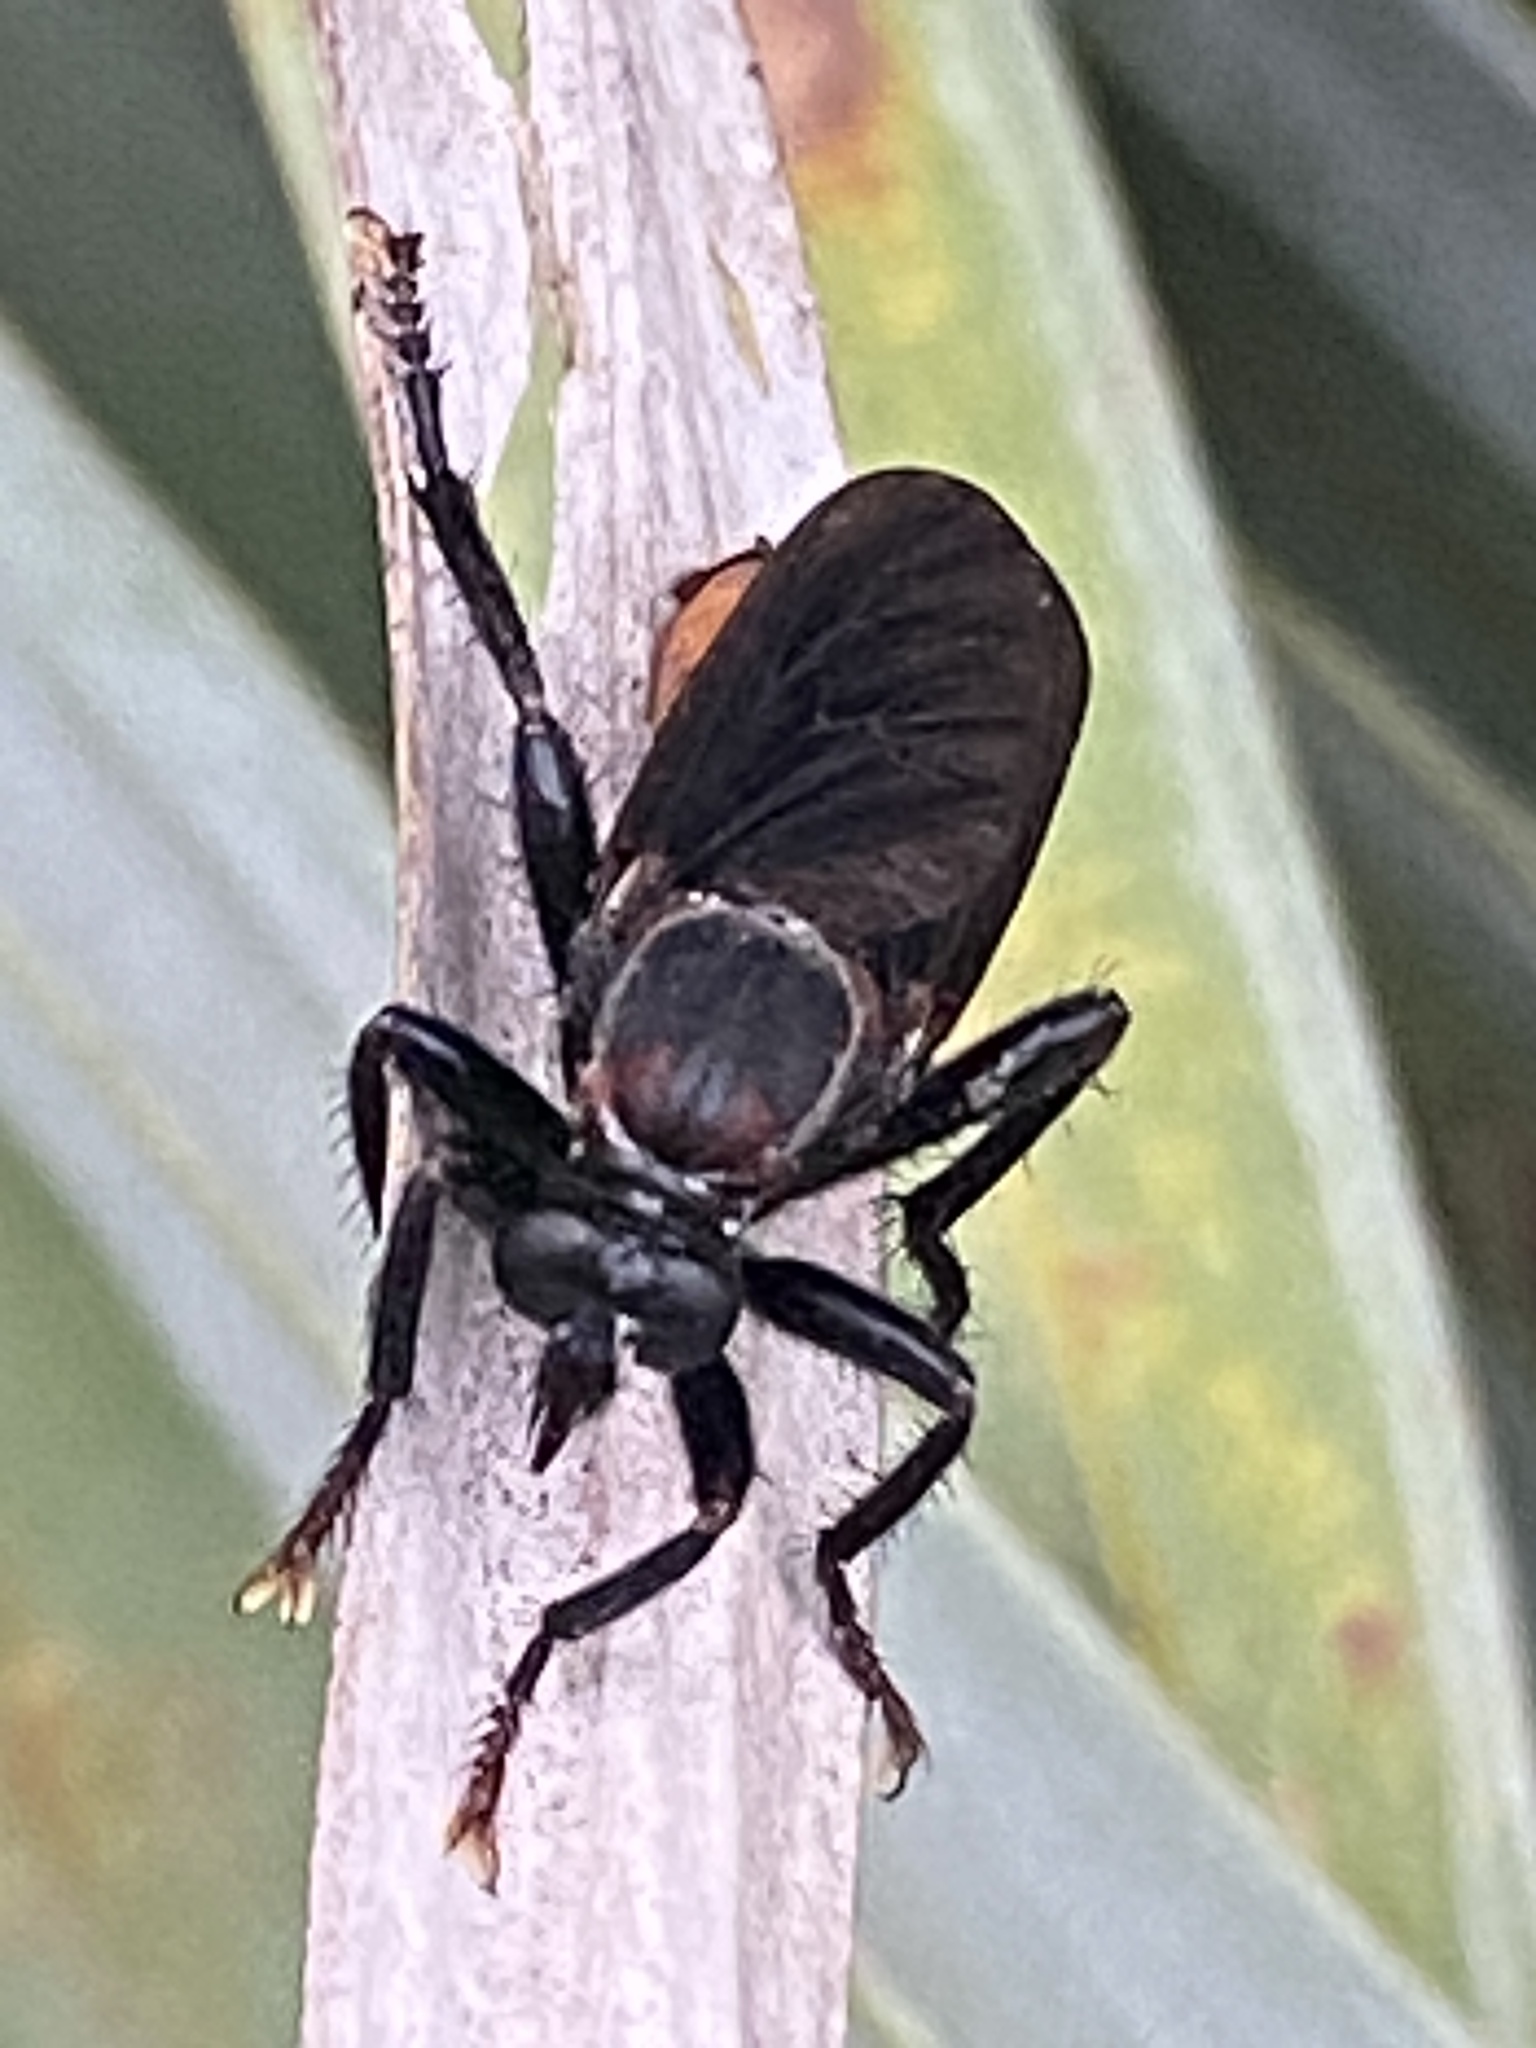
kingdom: Animalia
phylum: Arthropoda
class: Insecta
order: Diptera
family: Asilidae
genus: Prolepsis
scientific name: Prolepsis tristis
